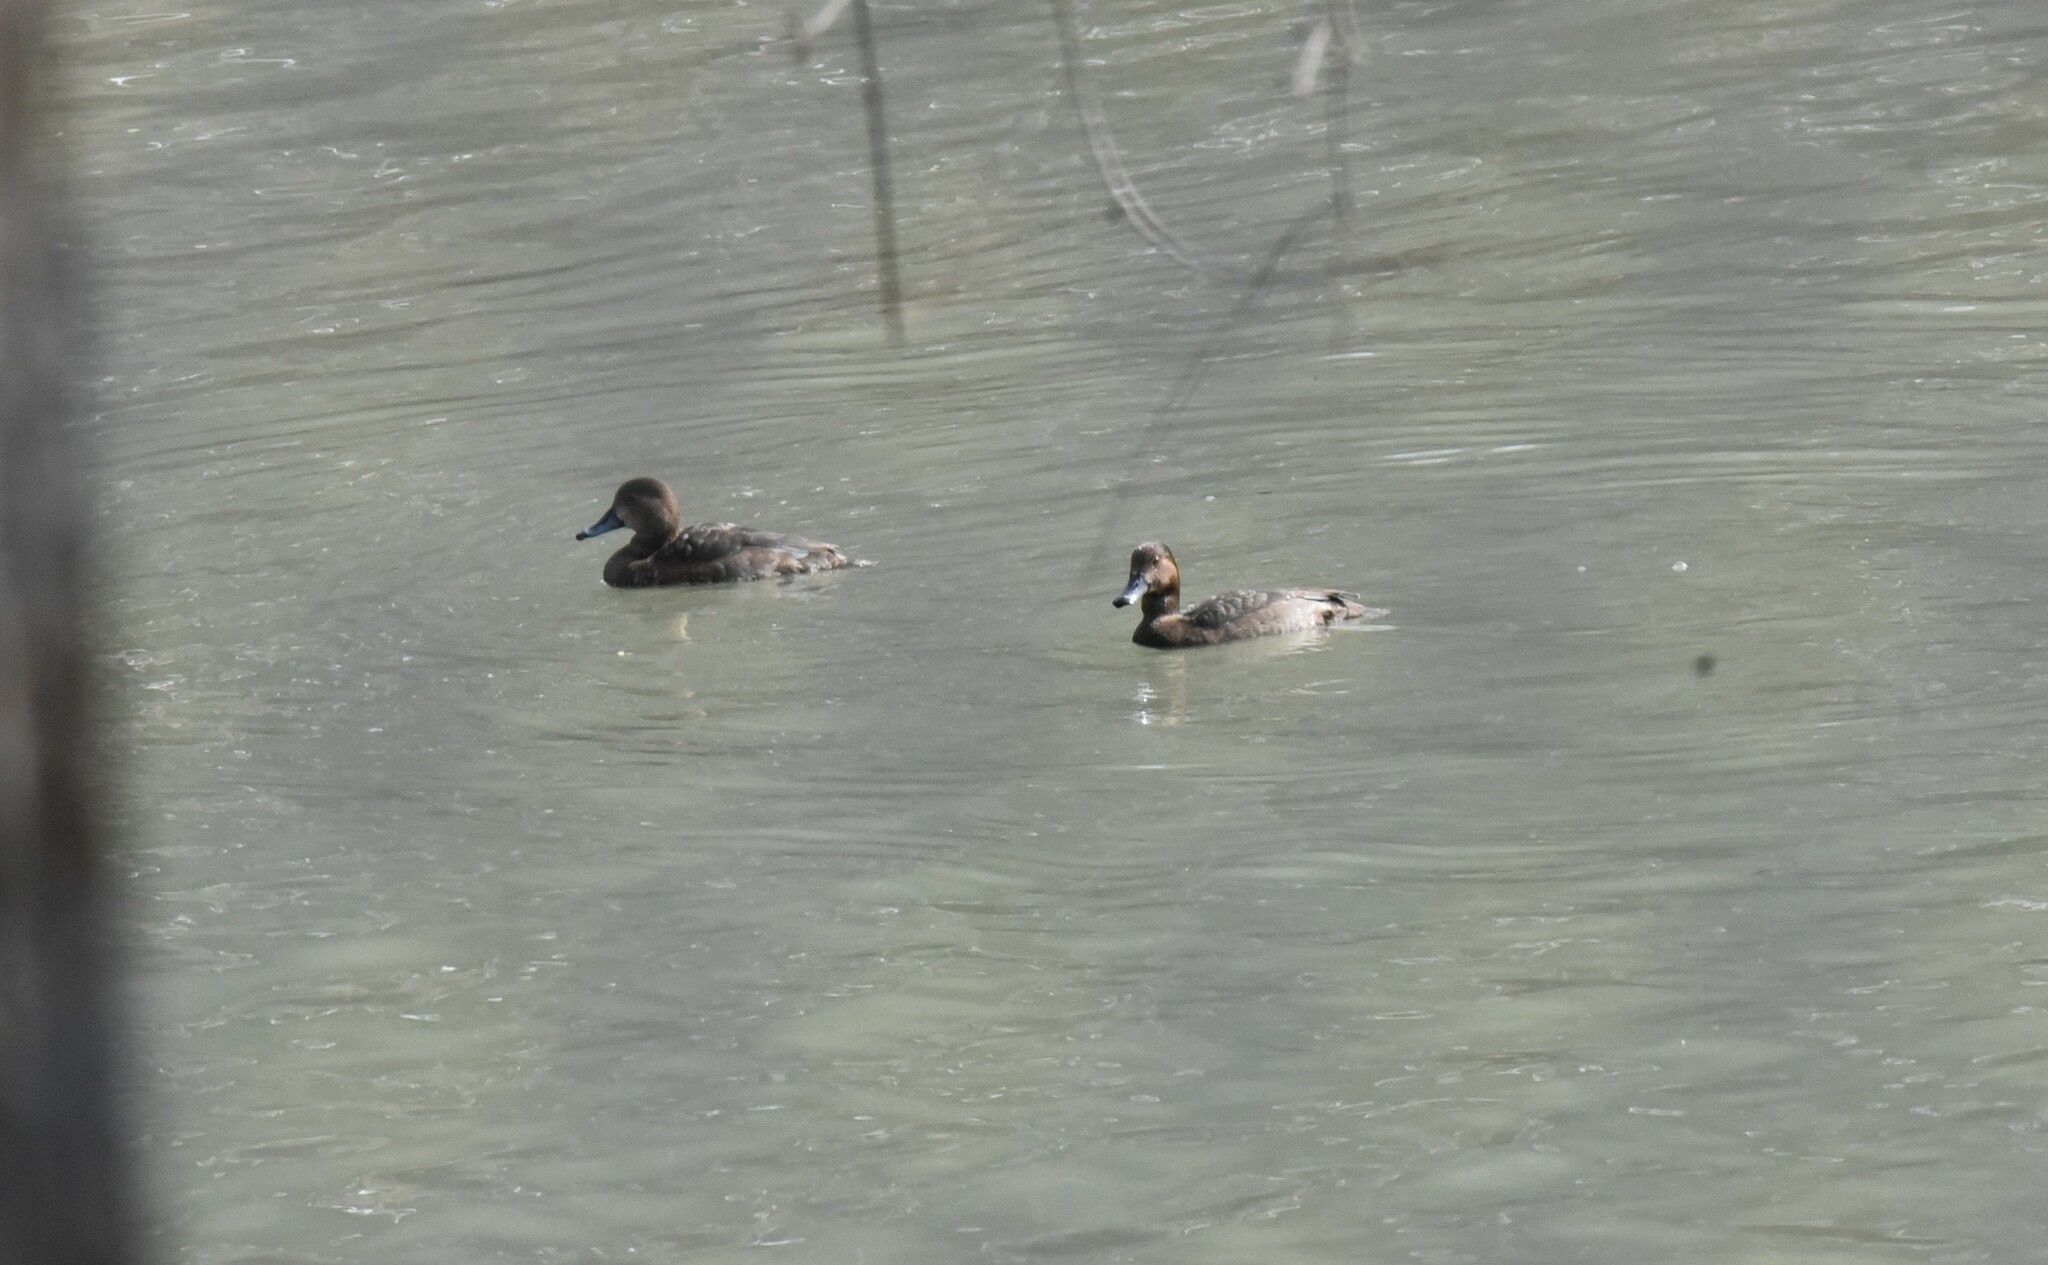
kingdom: Animalia
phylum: Chordata
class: Aves
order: Anseriformes
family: Anatidae
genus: Aythya
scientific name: Aythya americana
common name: Redhead
